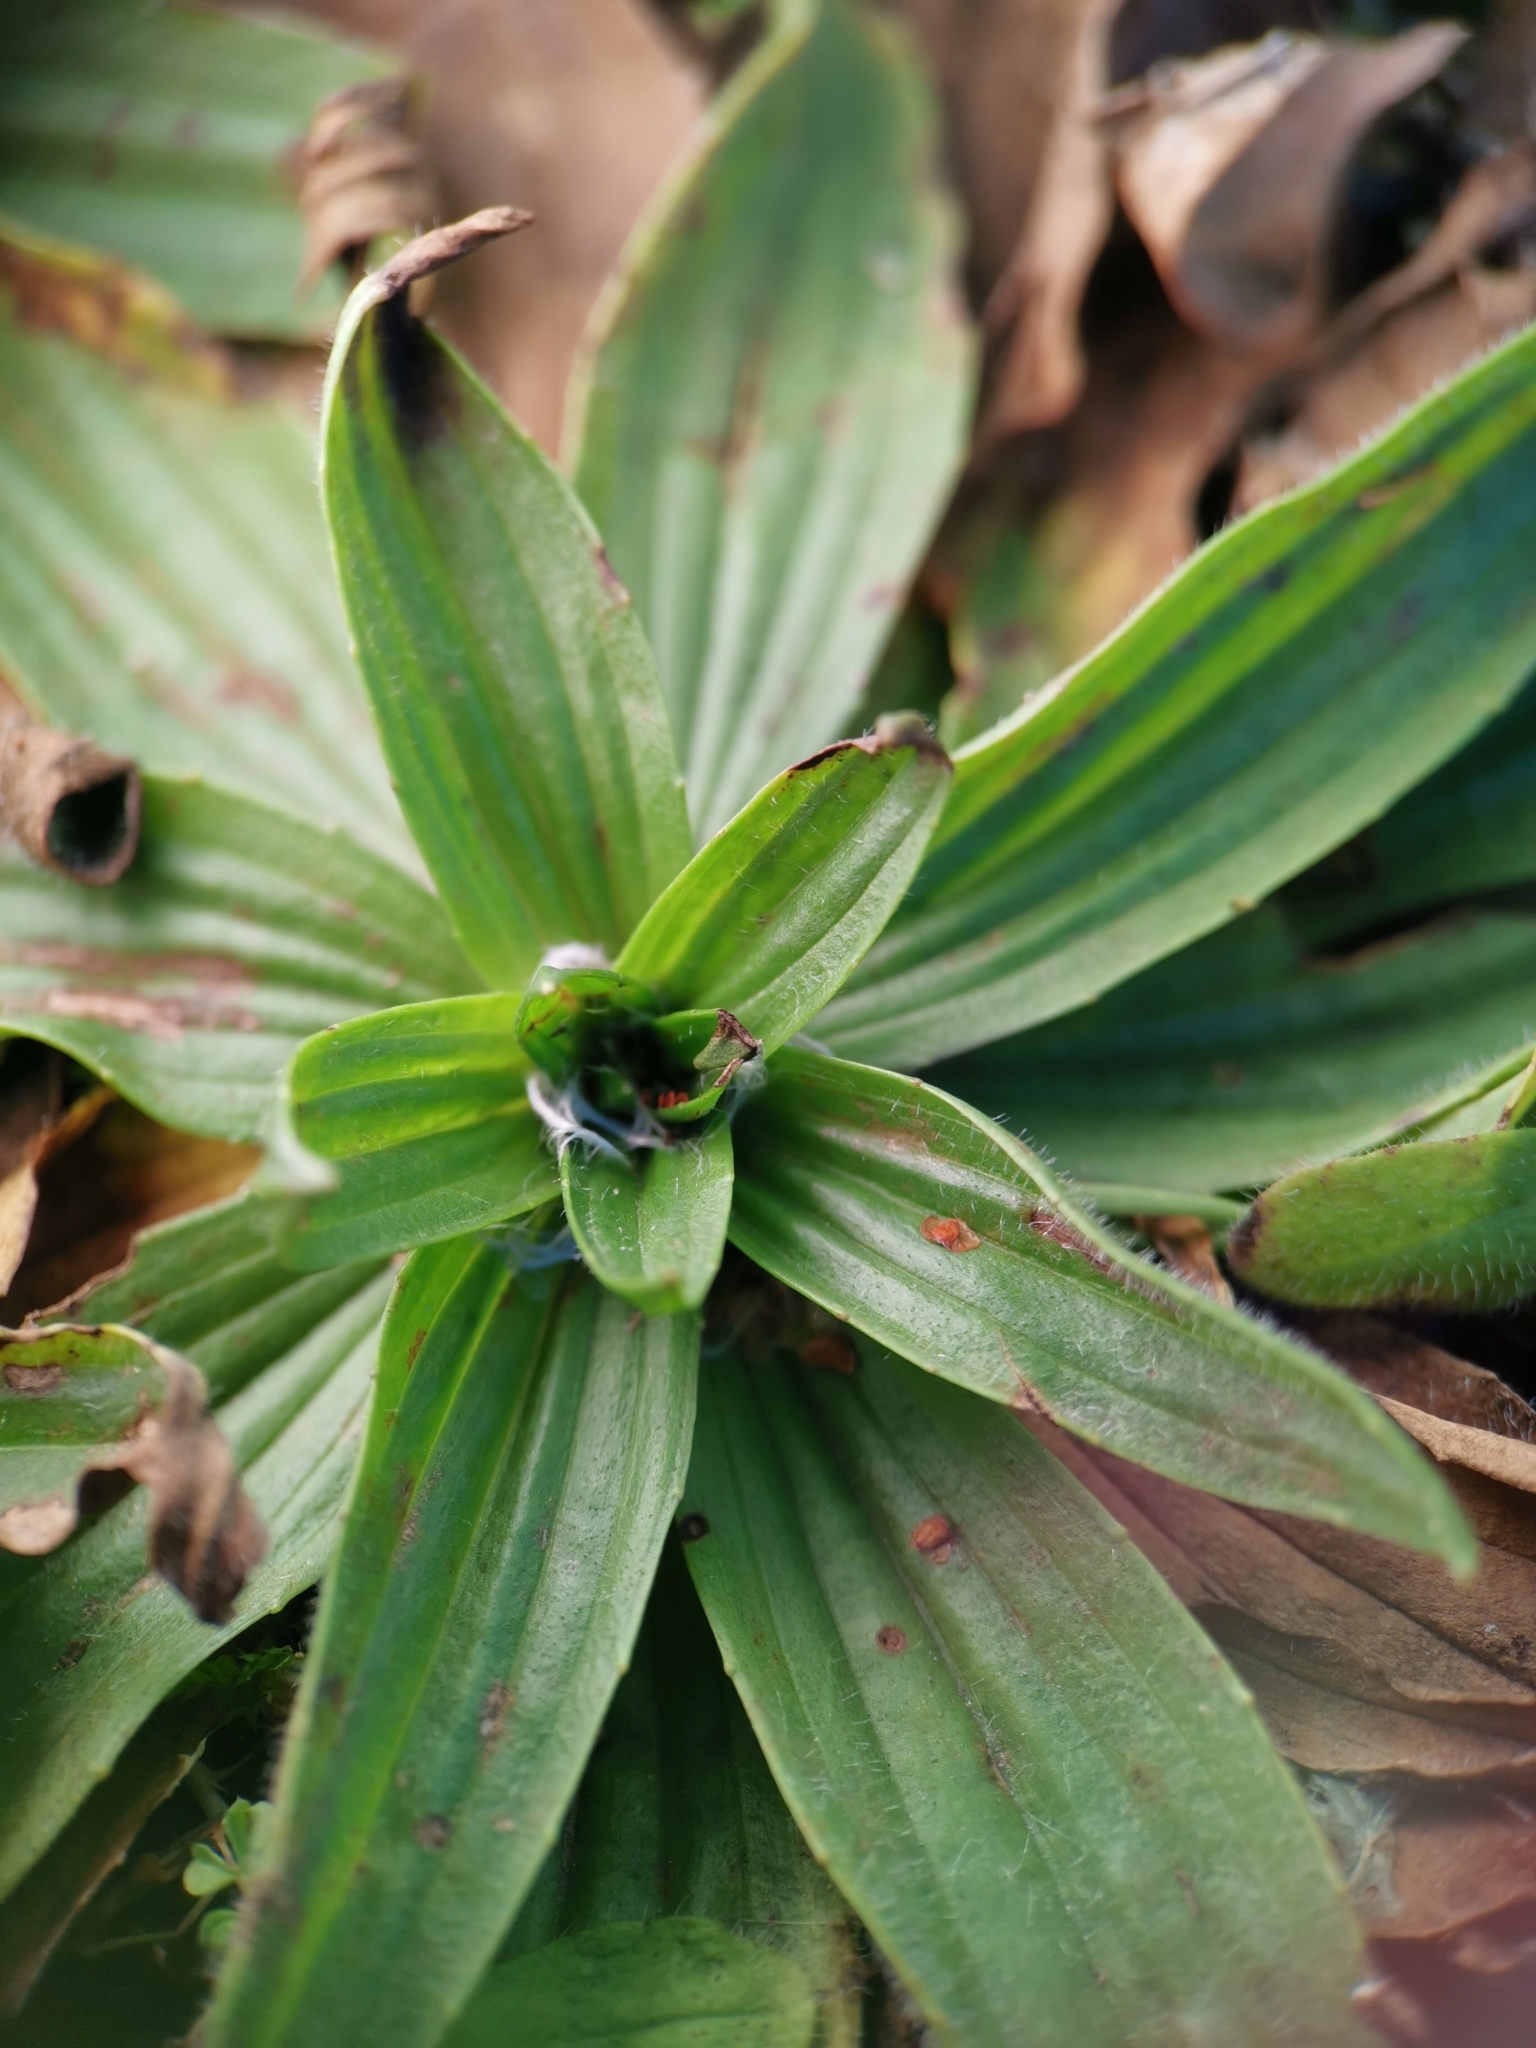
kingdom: Plantae
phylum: Tracheophyta
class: Magnoliopsida
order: Lamiales
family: Plantaginaceae
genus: Plantago
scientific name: Plantago lanceolata
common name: Ribwort plantain
